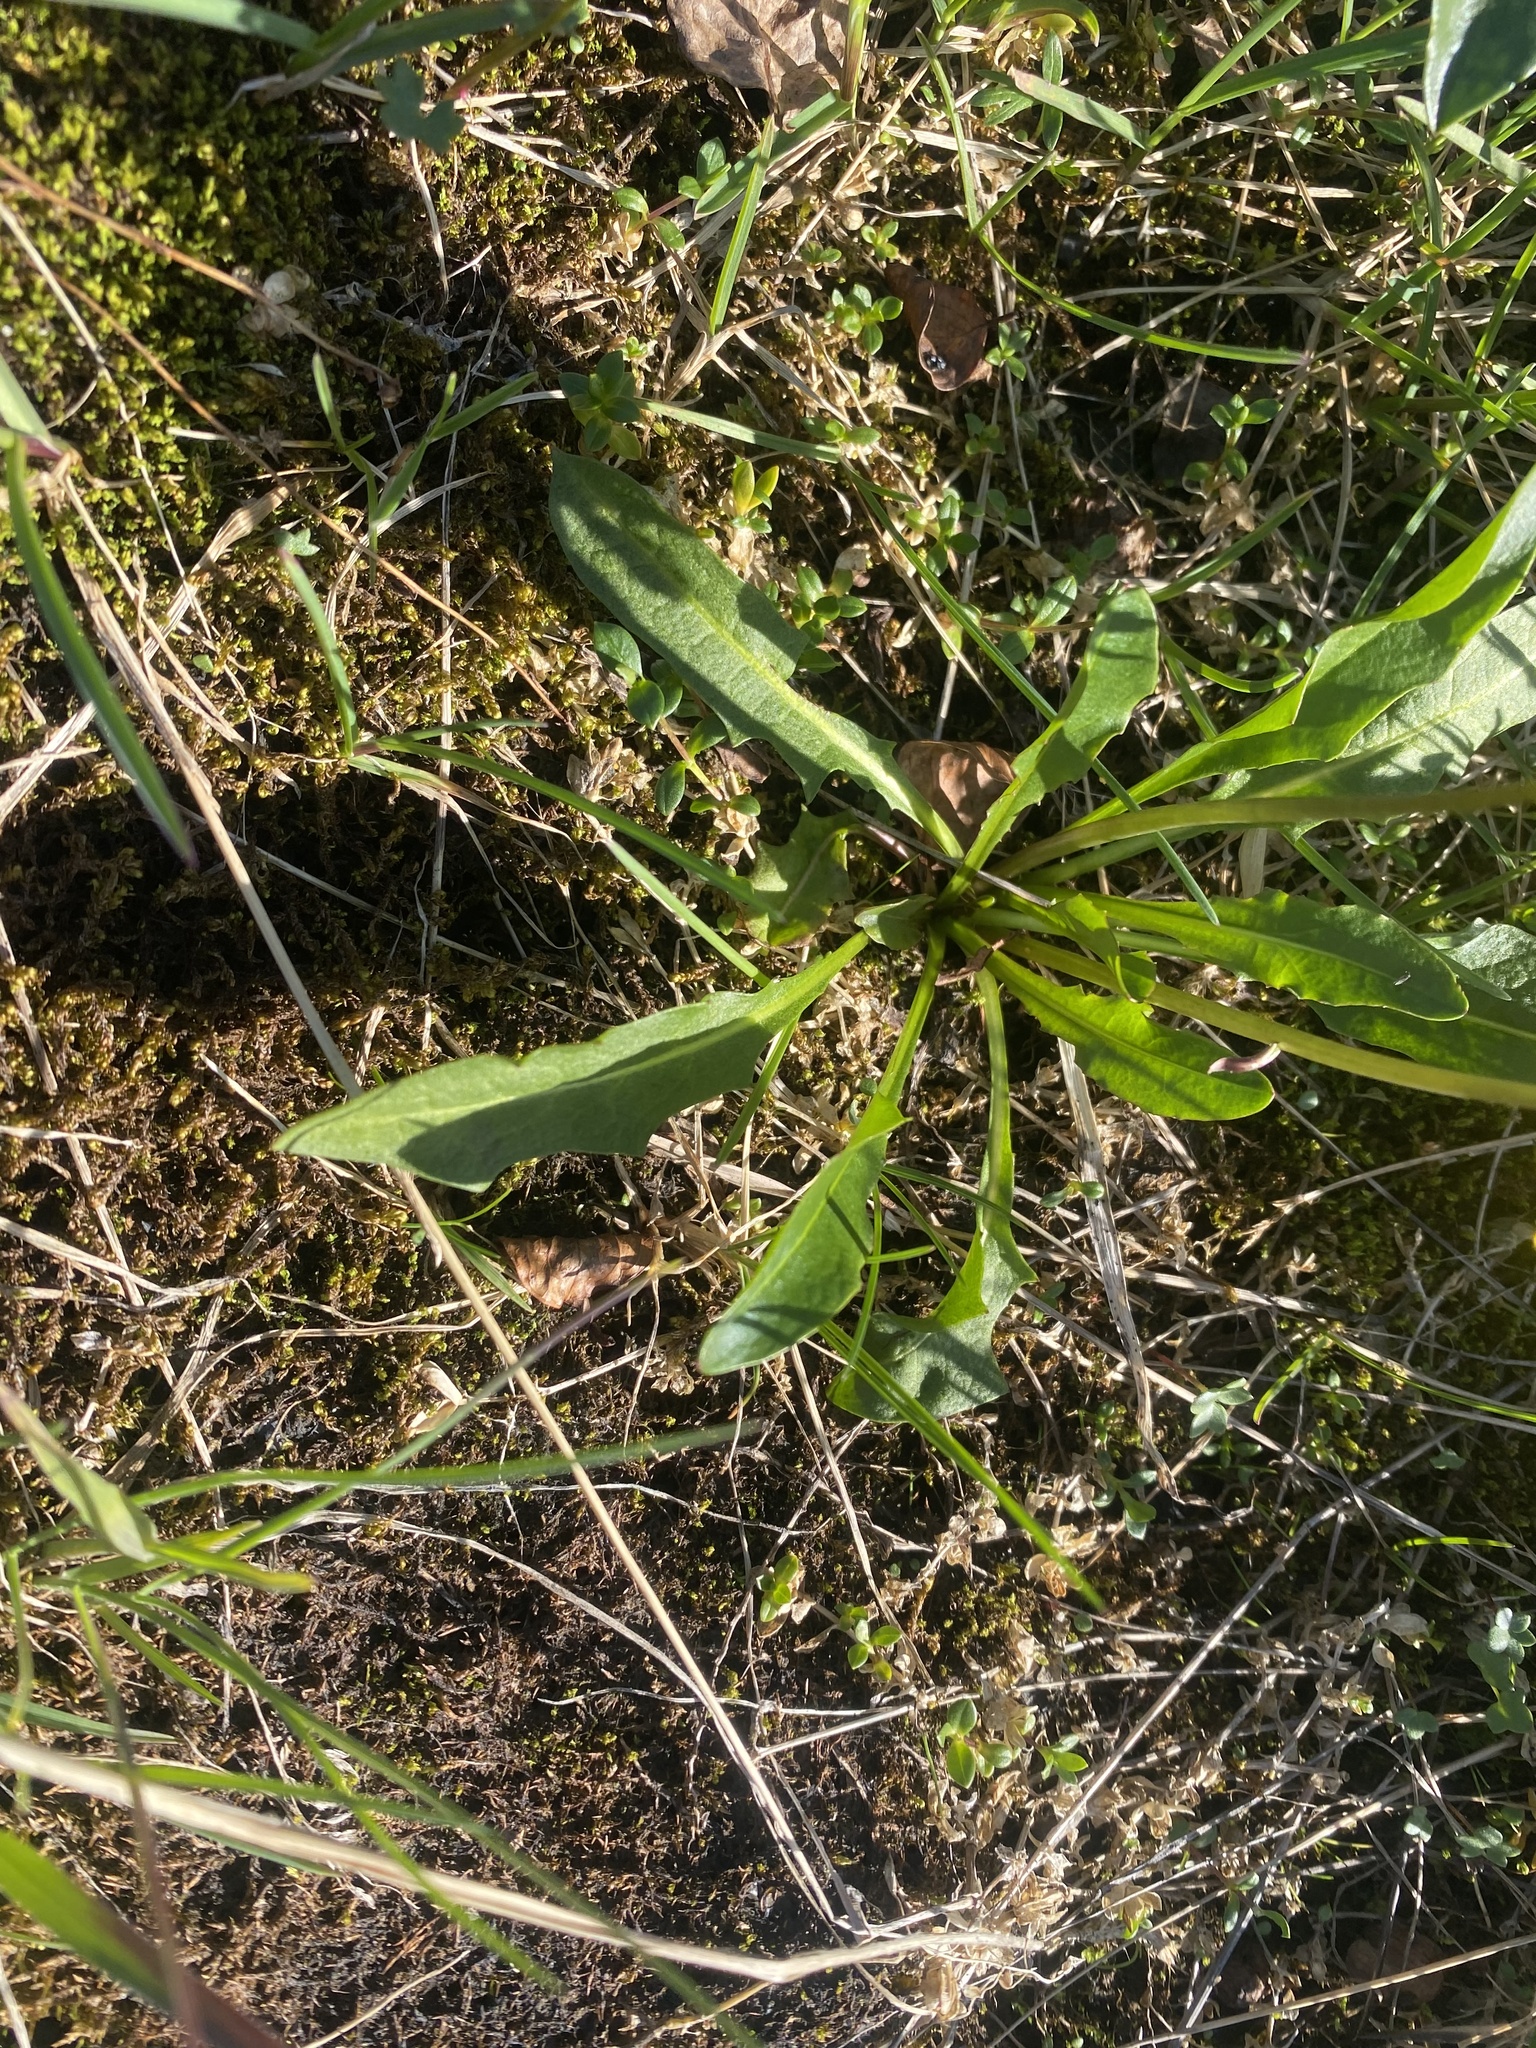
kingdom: Plantae
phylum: Tracheophyta
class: Magnoliopsida
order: Asterales
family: Asteraceae
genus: Taraxacum
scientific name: Taraxacum macilentum
